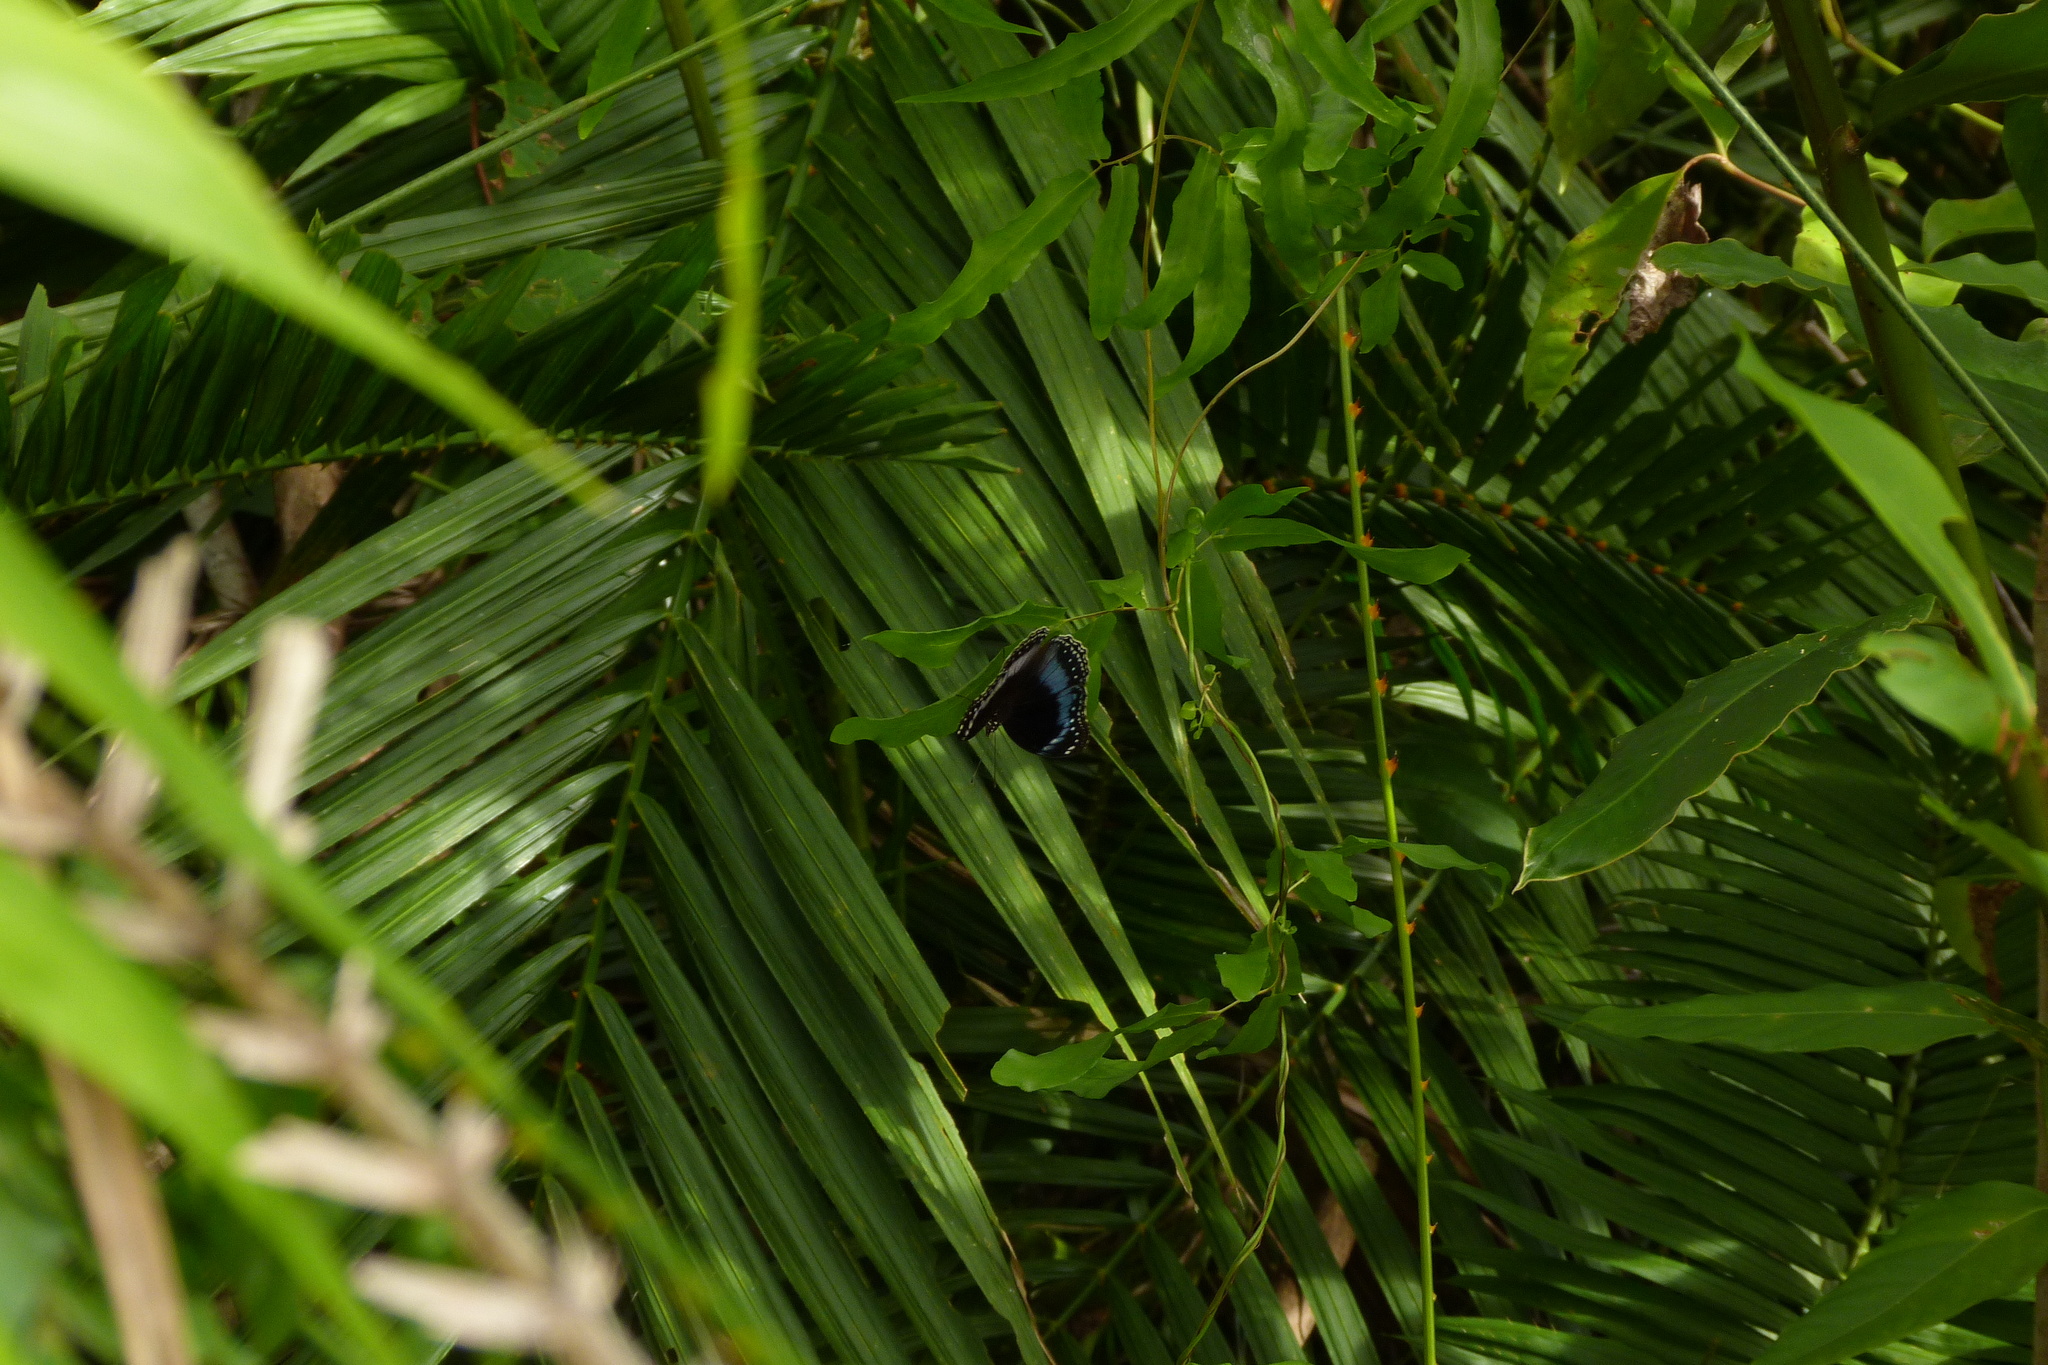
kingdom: Animalia
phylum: Arthropoda
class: Insecta
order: Lepidoptera
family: Nymphalidae
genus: Hypolimnas
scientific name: Hypolimnas alimena
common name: Blue-banded eggfly
